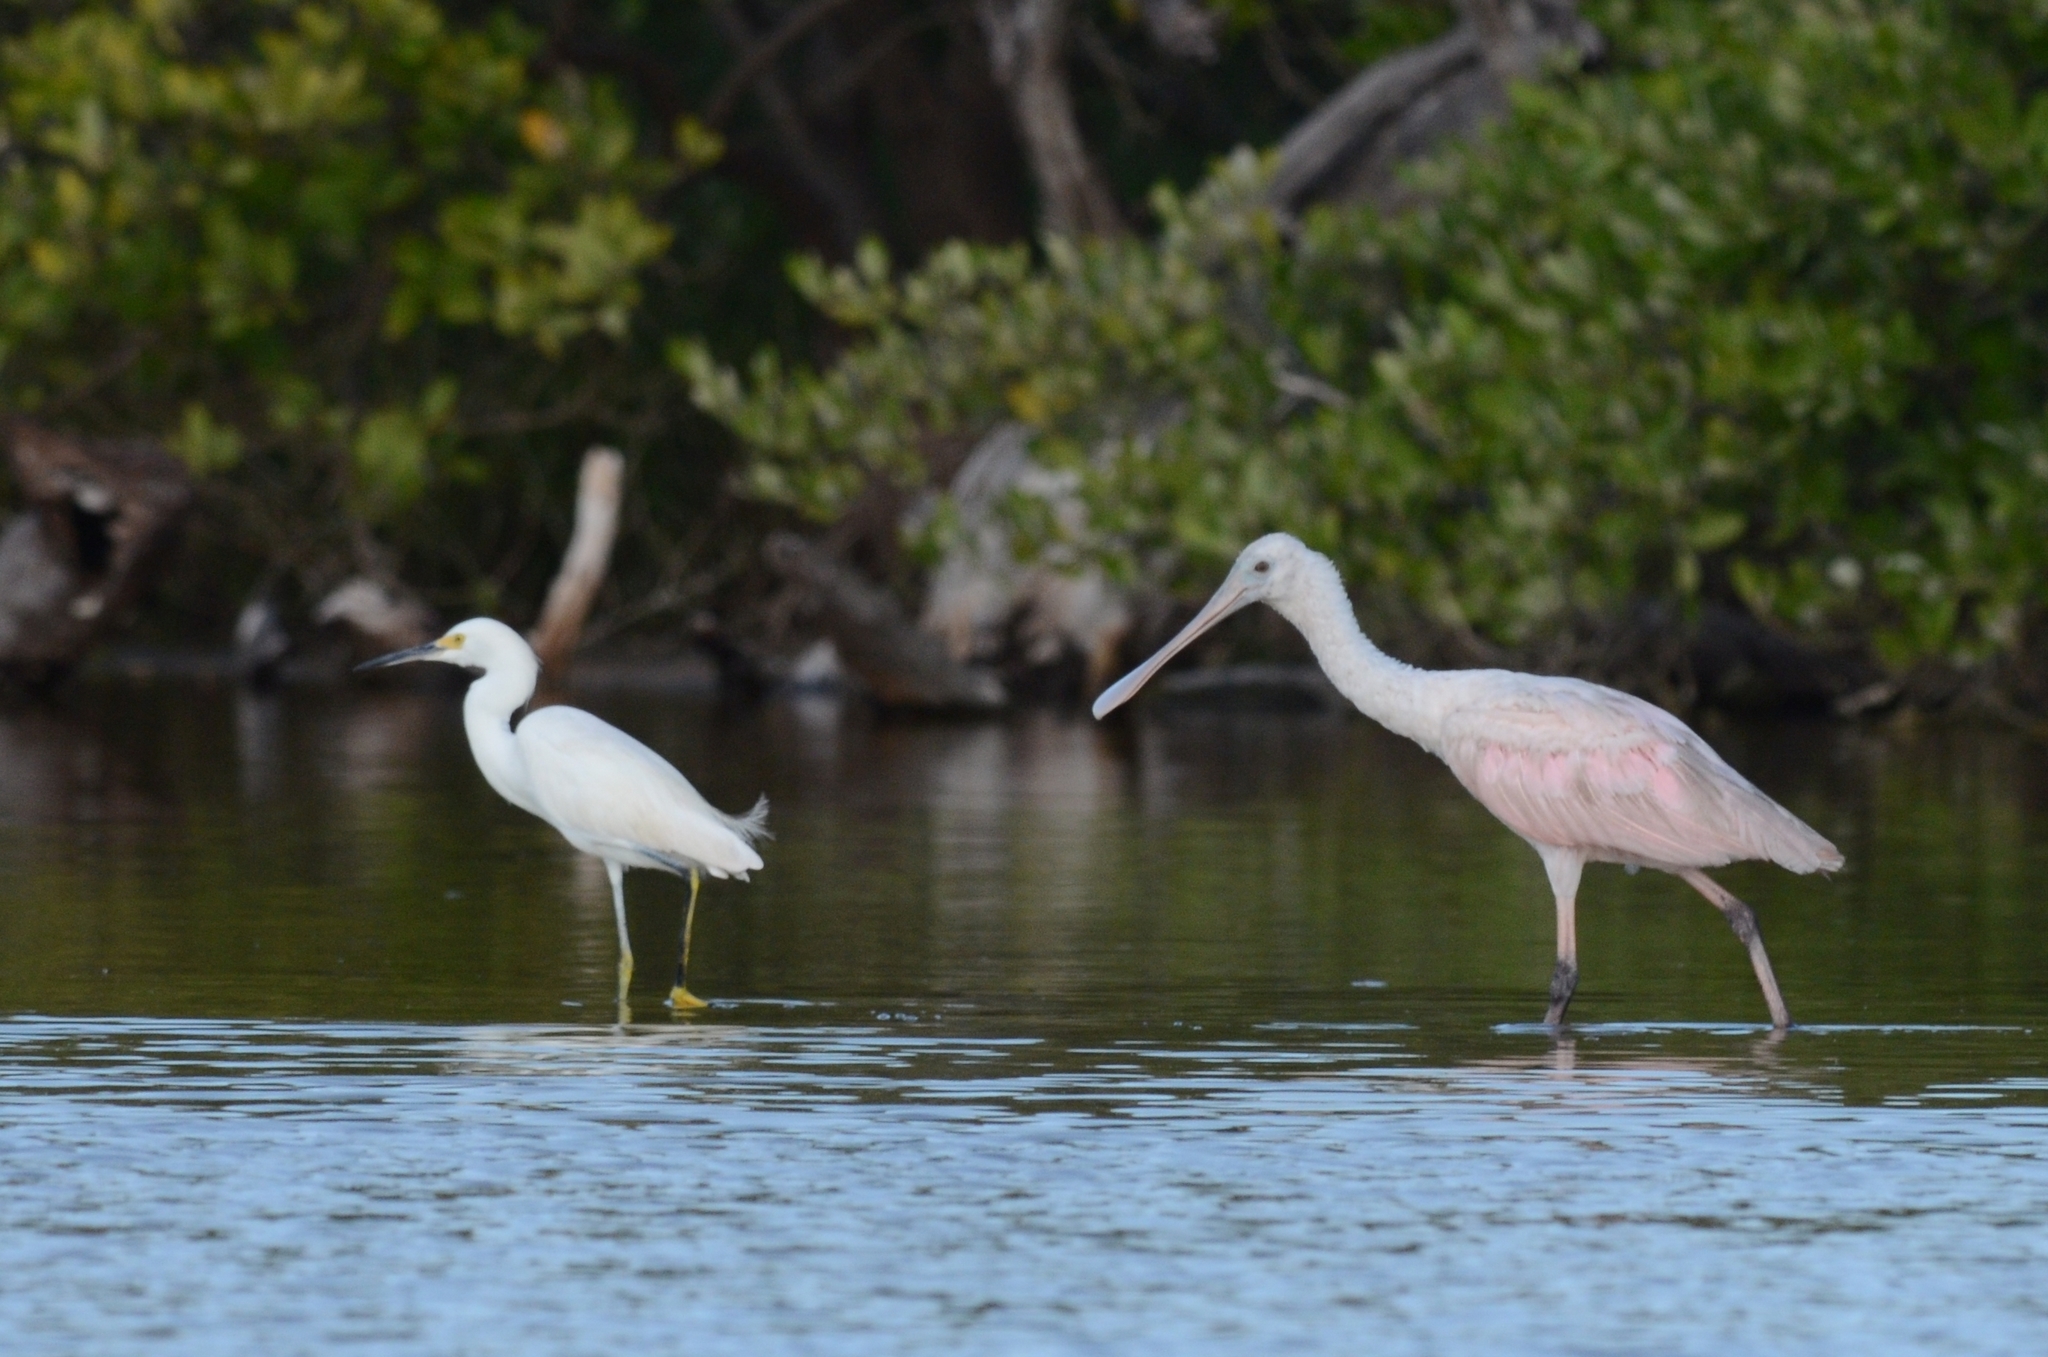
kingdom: Animalia
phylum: Chordata
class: Aves
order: Pelecaniformes
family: Threskiornithidae
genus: Platalea
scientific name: Platalea ajaja
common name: Roseate spoonbill
